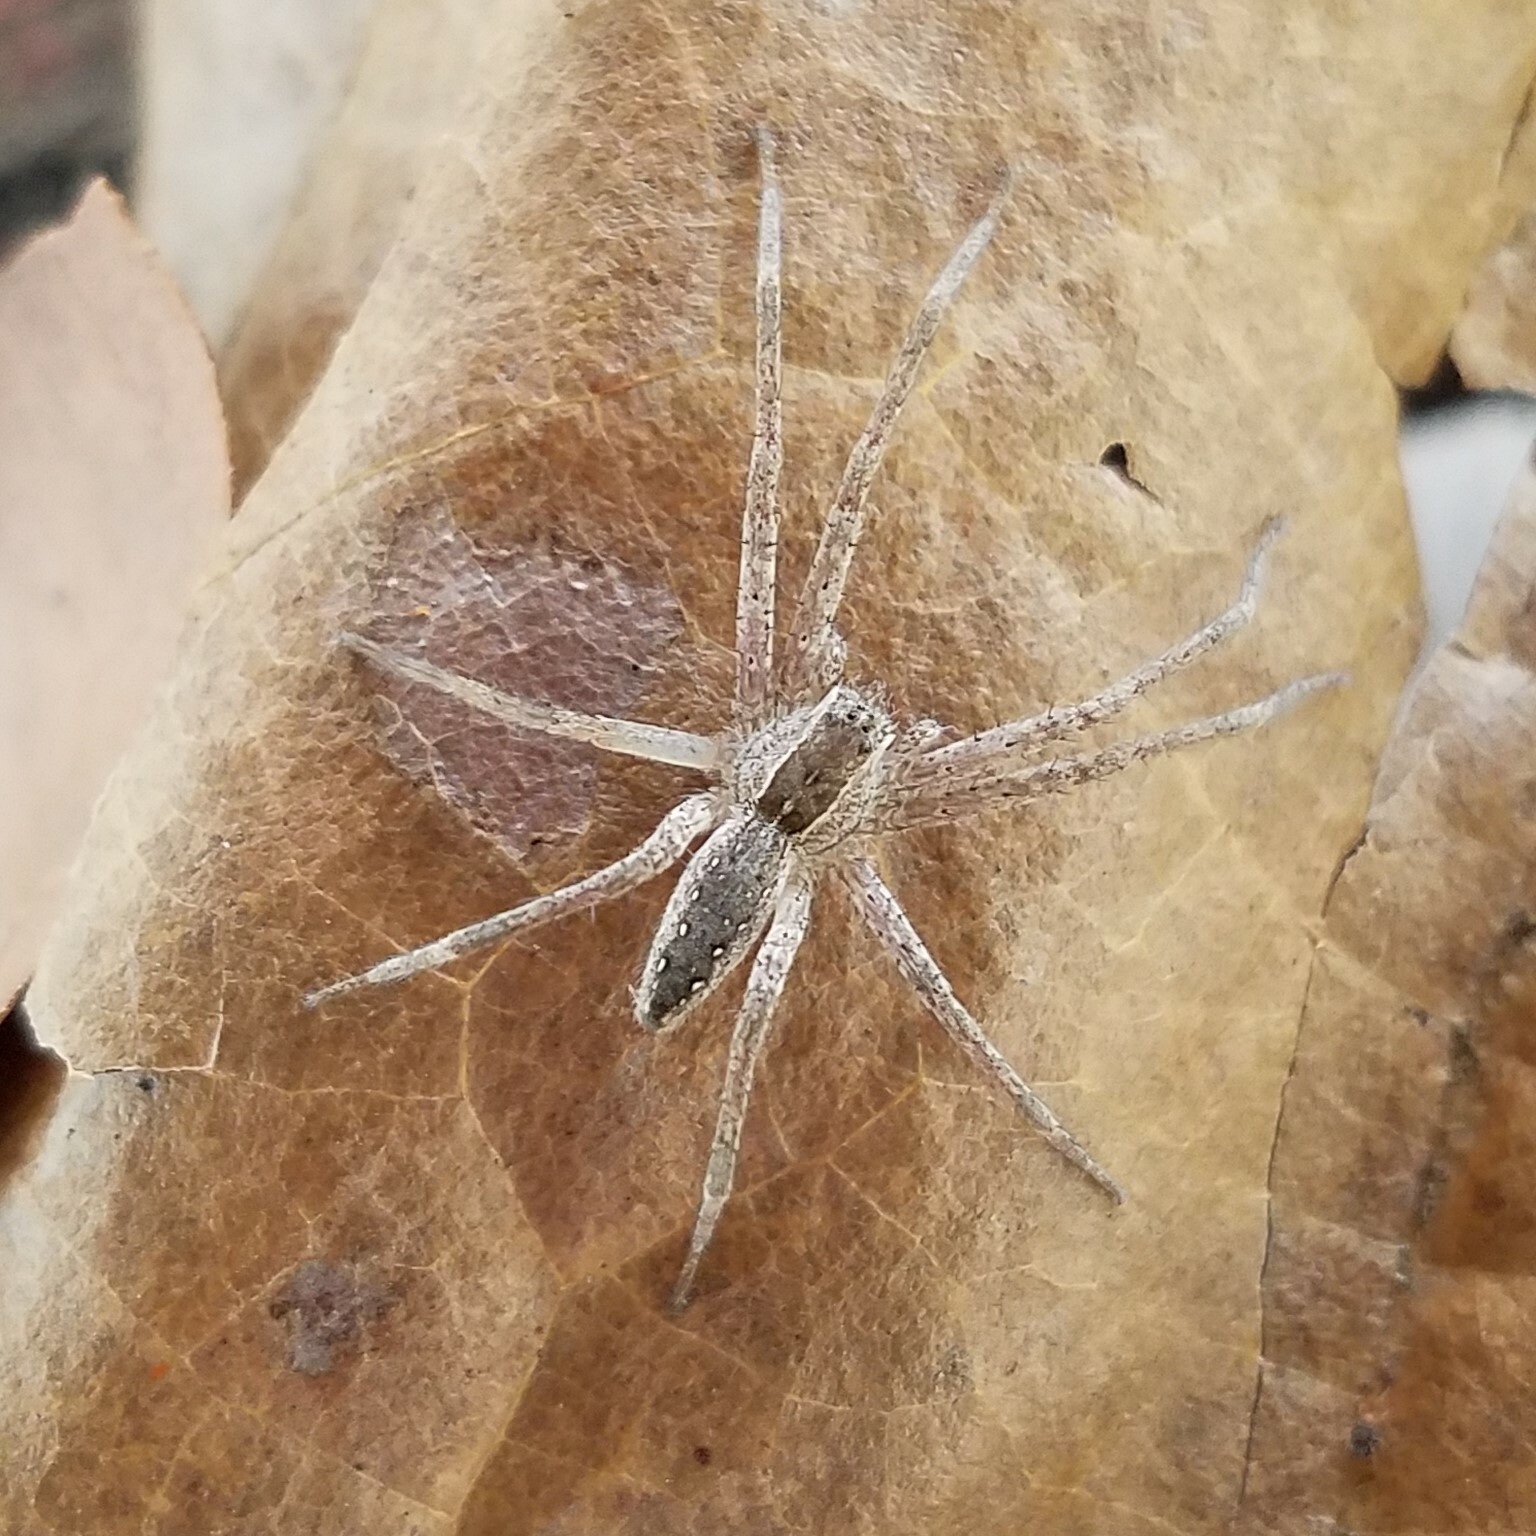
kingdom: Animalia
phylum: Arthropoda
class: Arachnida
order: Araneae
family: Pisauridae
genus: Pisaurina
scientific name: Pisaurina mira
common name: American nursery web spider
